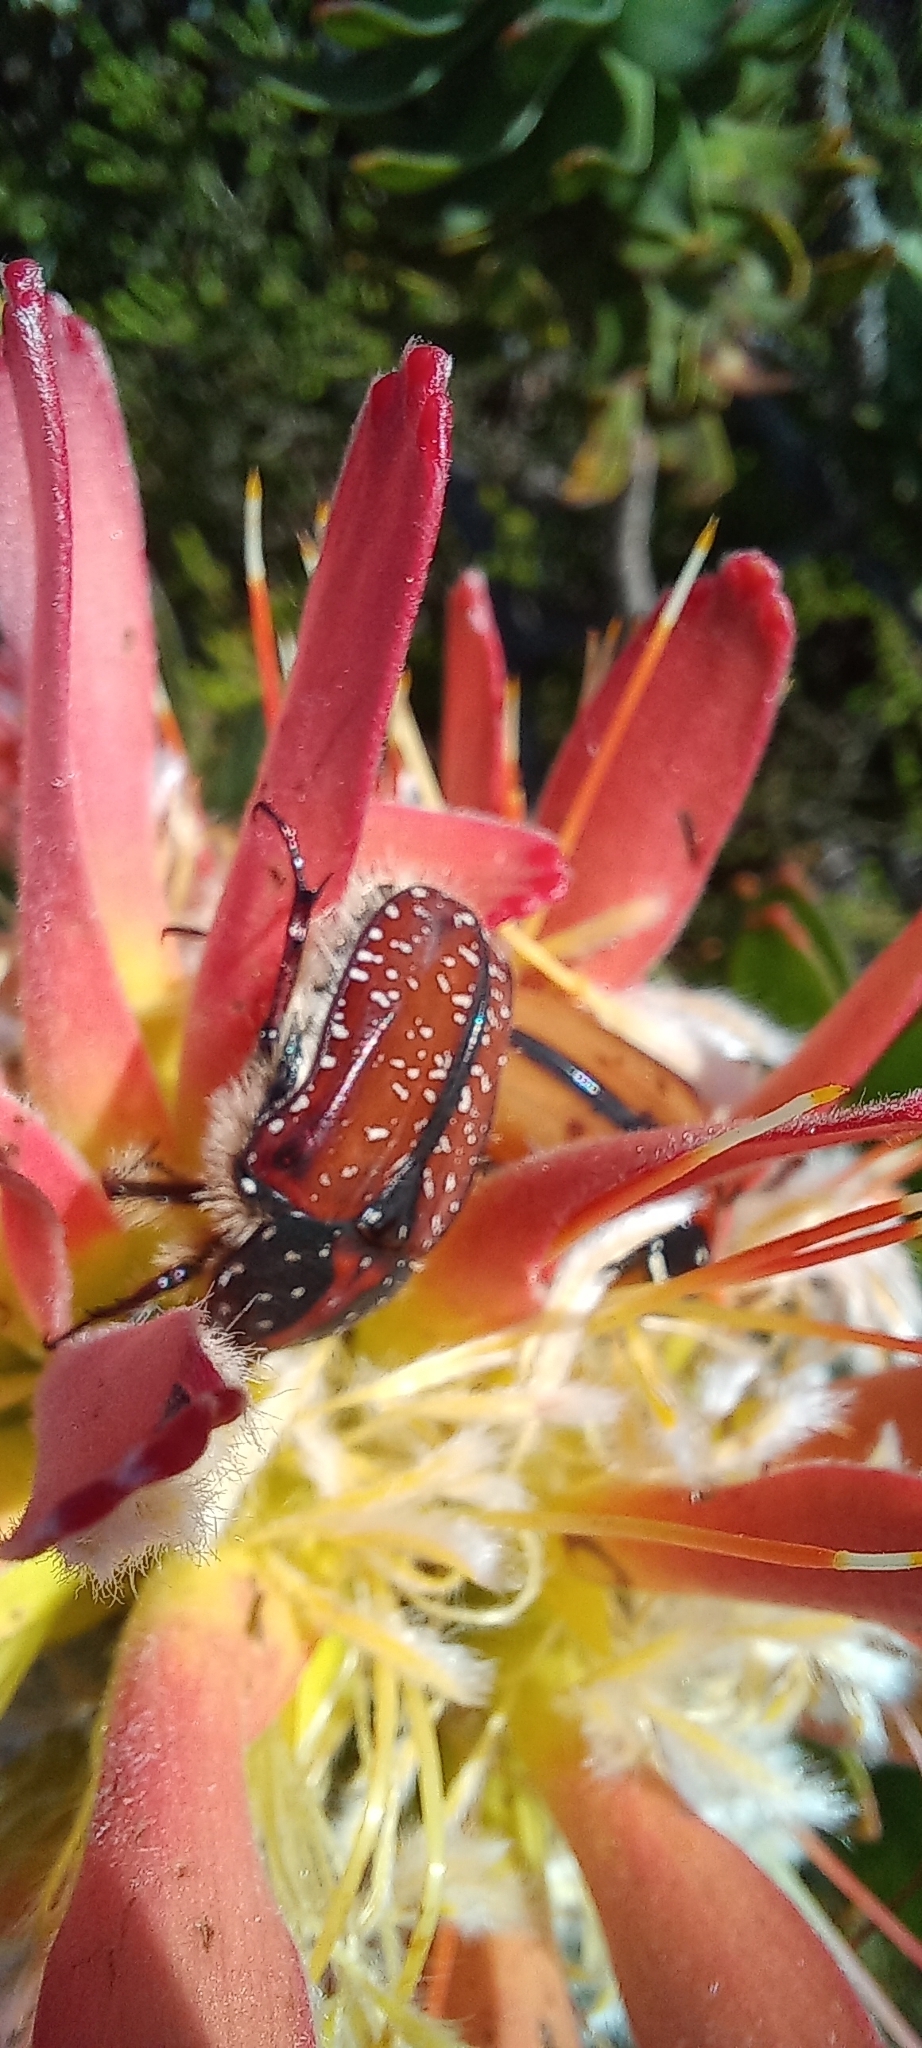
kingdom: Animalia
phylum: Arthropoda
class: Insecta
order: Coleoptera
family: Scarabaeidae
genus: Trichostetha
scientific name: Trichostetha capensis
